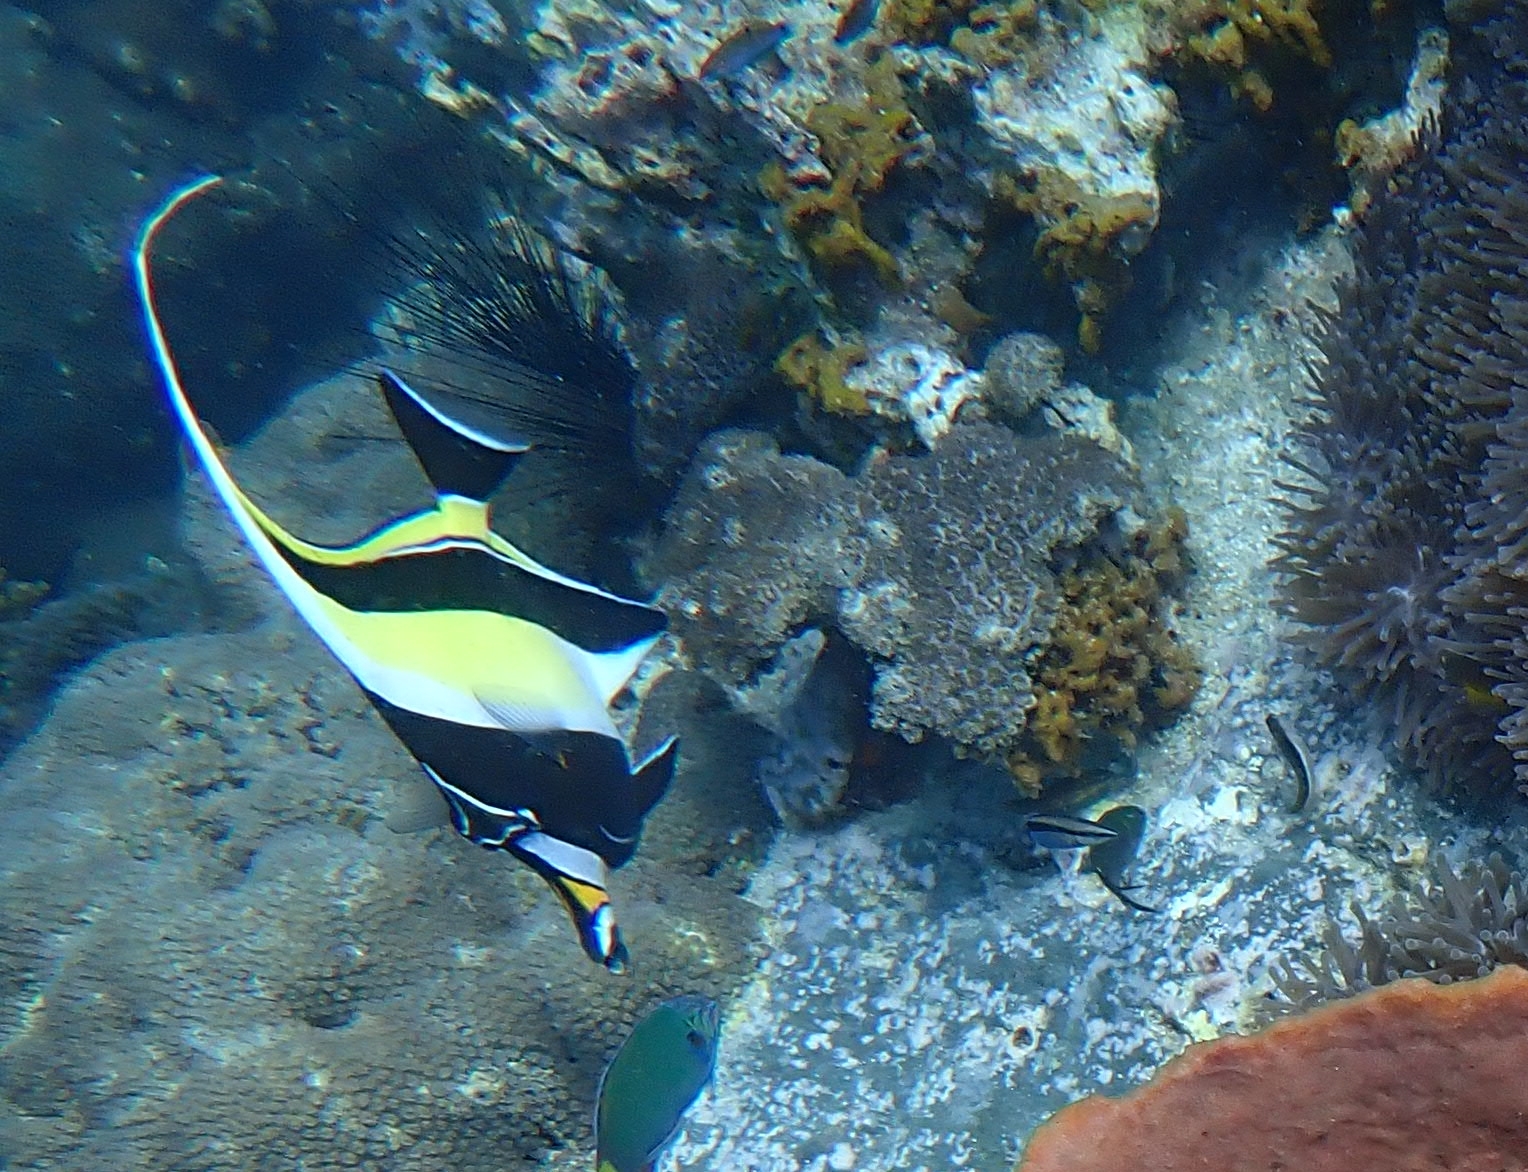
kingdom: Animalia
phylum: Chordata
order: Perciformes
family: Zanclidae
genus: Zanclus
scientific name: Zanclus cornutus
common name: Moorish idol
